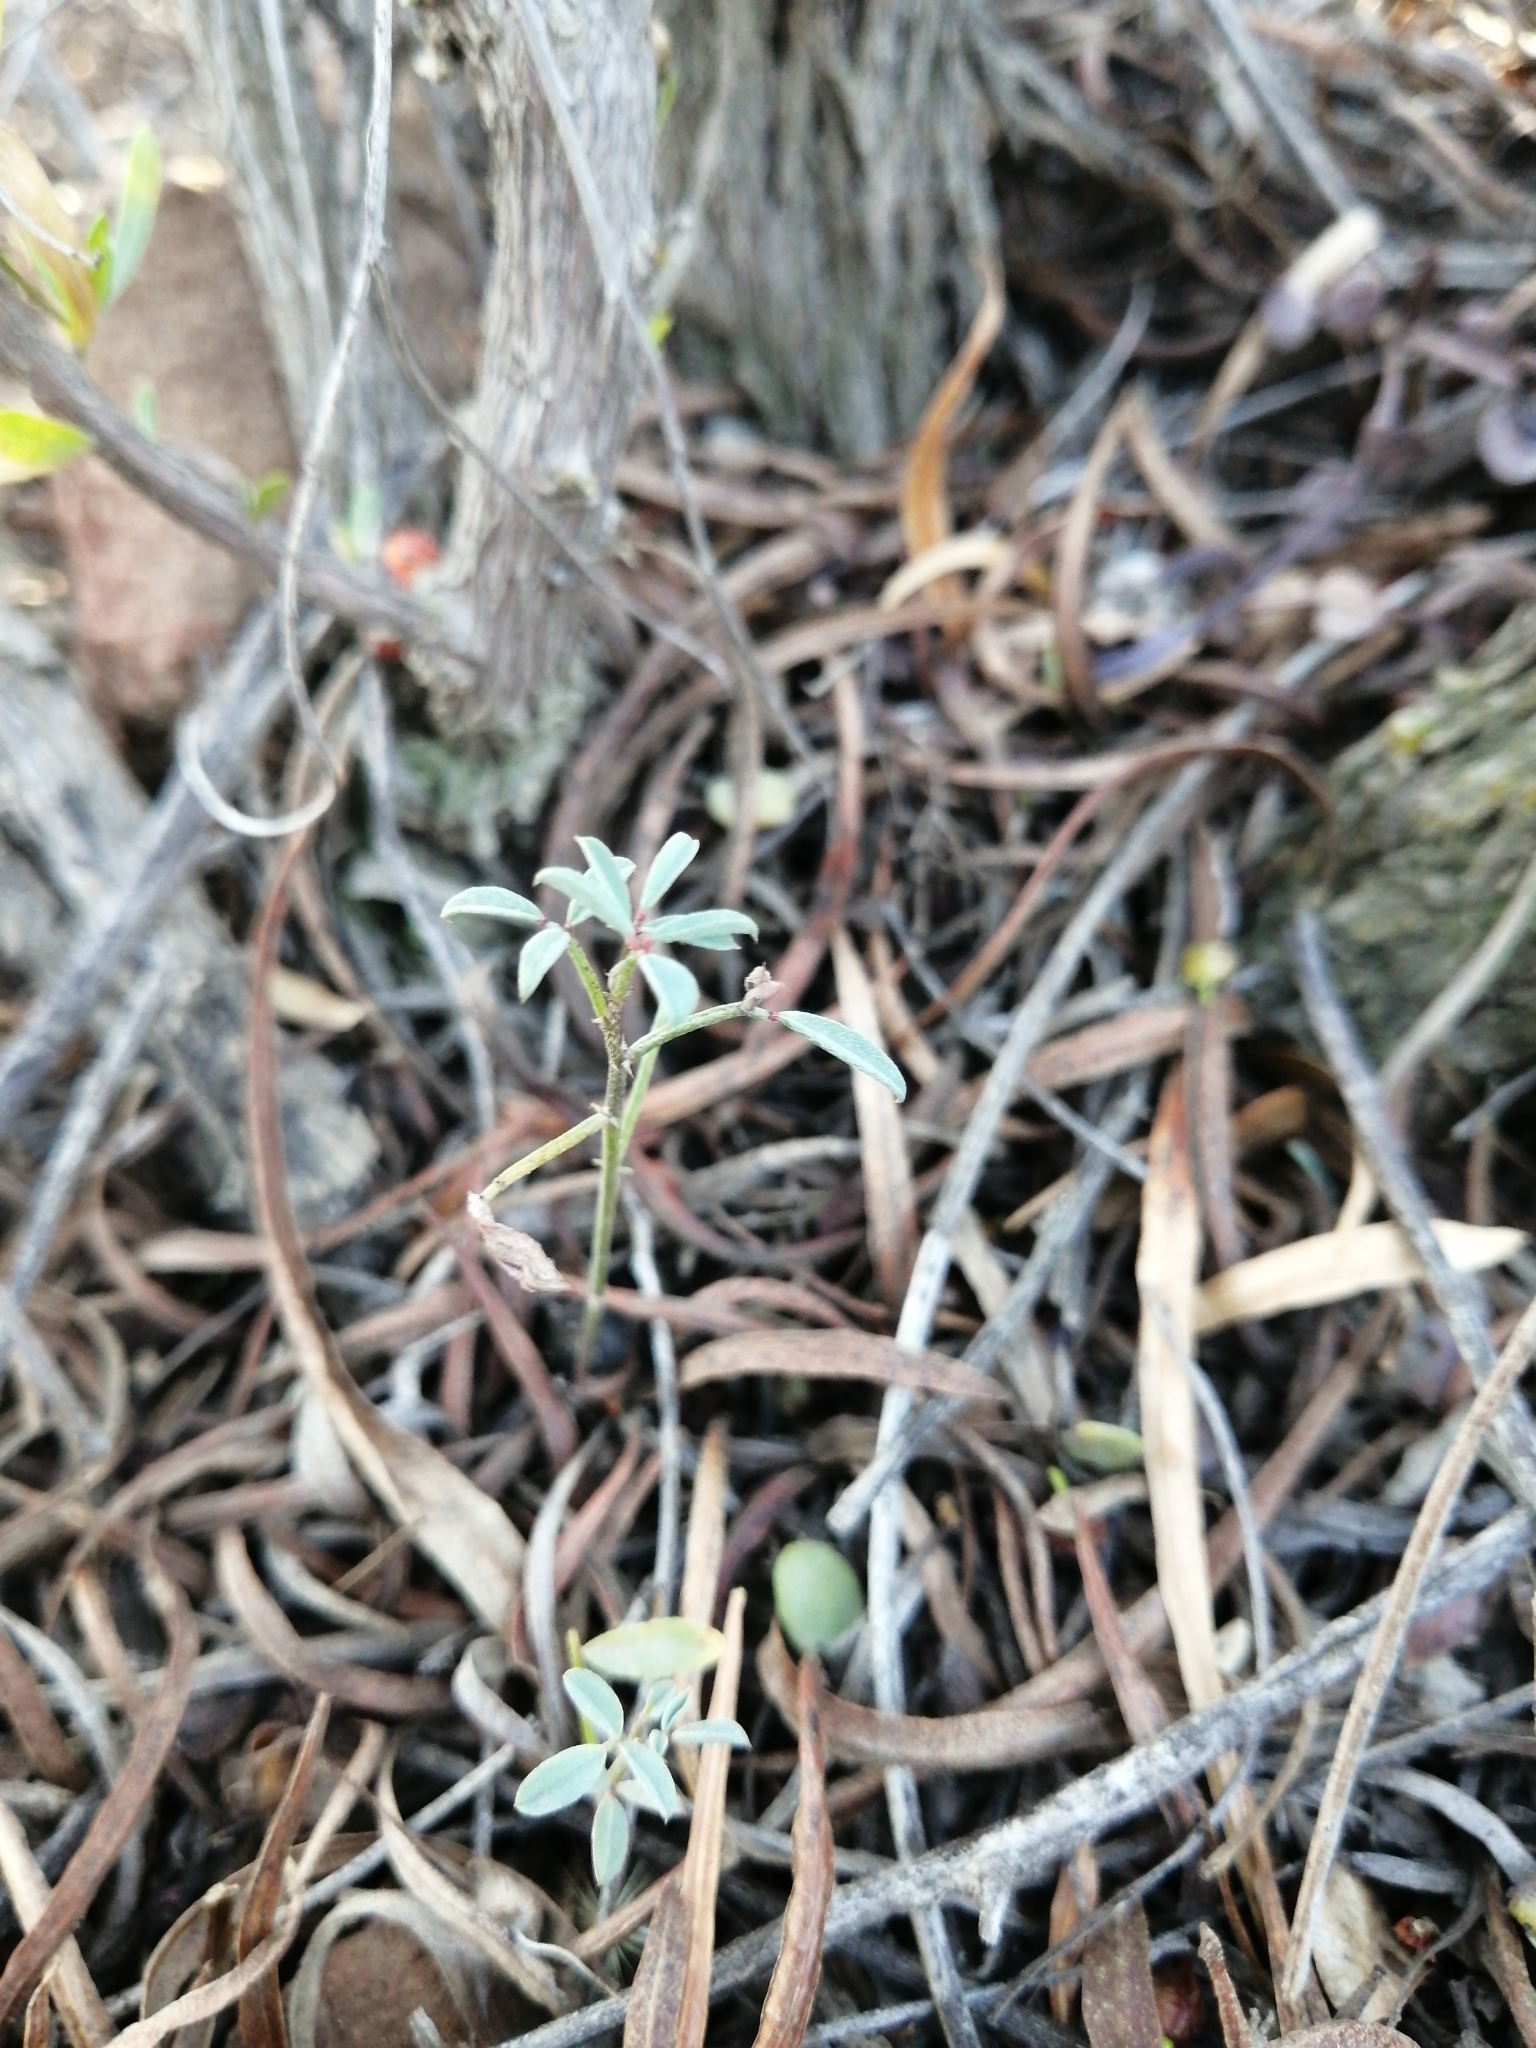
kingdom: Plantae
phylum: Tracheophyta
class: Magnoliopsida
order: Fabales
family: Fabaceae
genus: Indigofera
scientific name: Indigofera heterophylla
